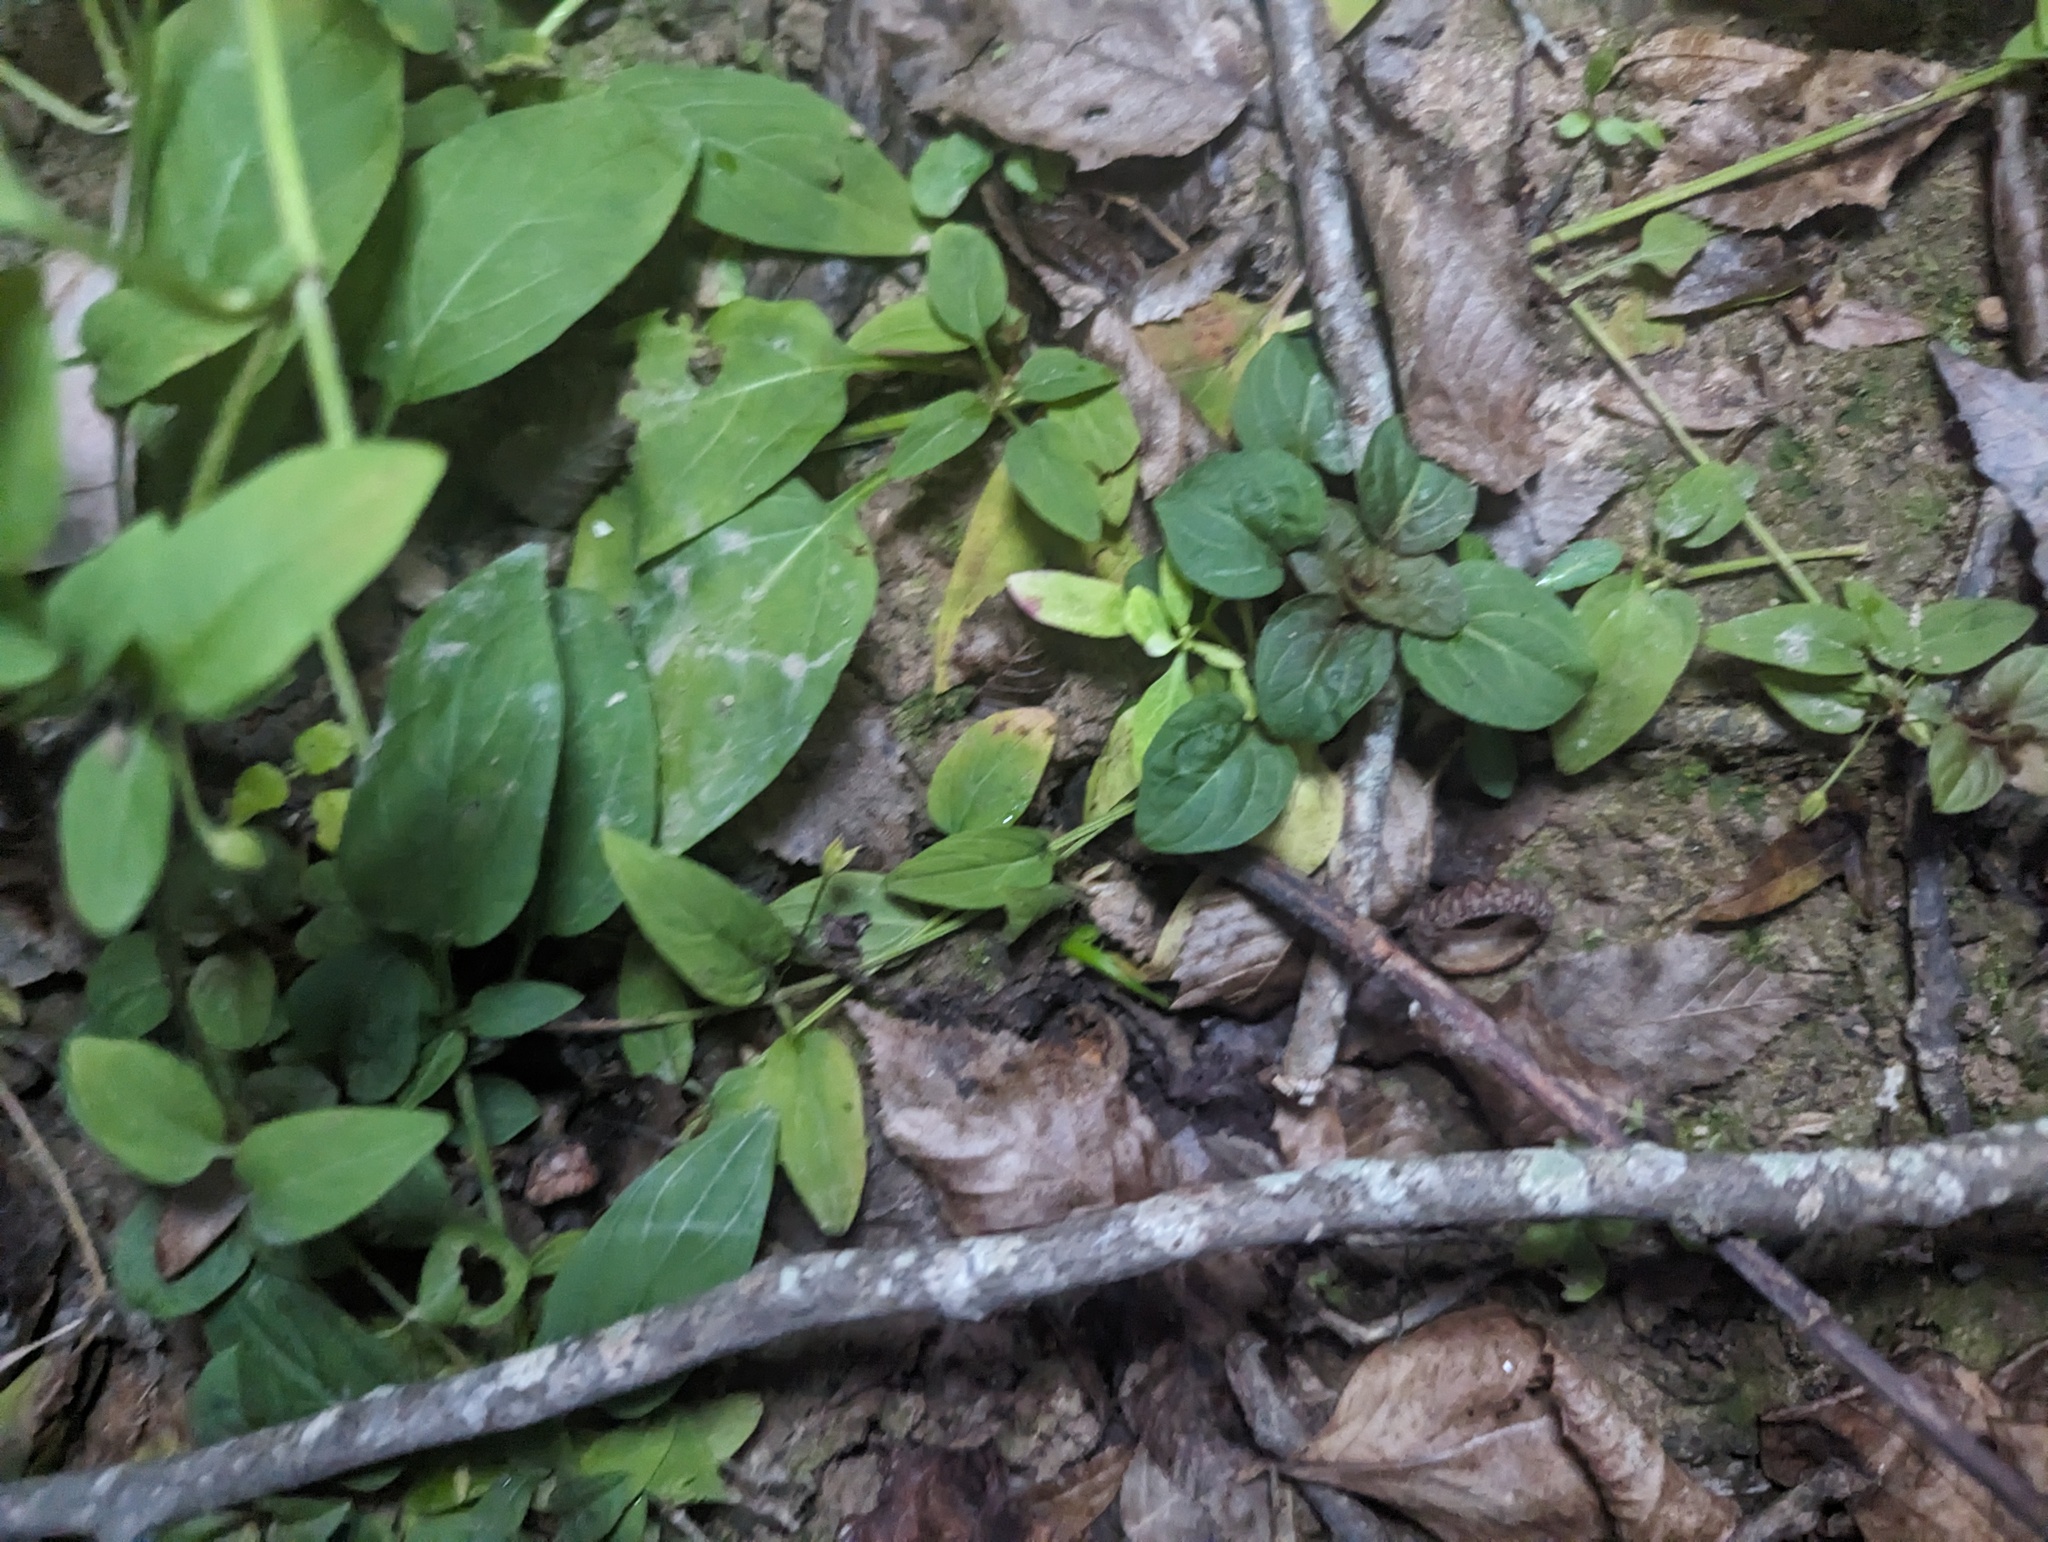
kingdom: Plantae
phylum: Tracheophyta
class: Magnoliopsida
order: Ericales
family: Primulaceae
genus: Lysimachia
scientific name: Lysimachia radicans
